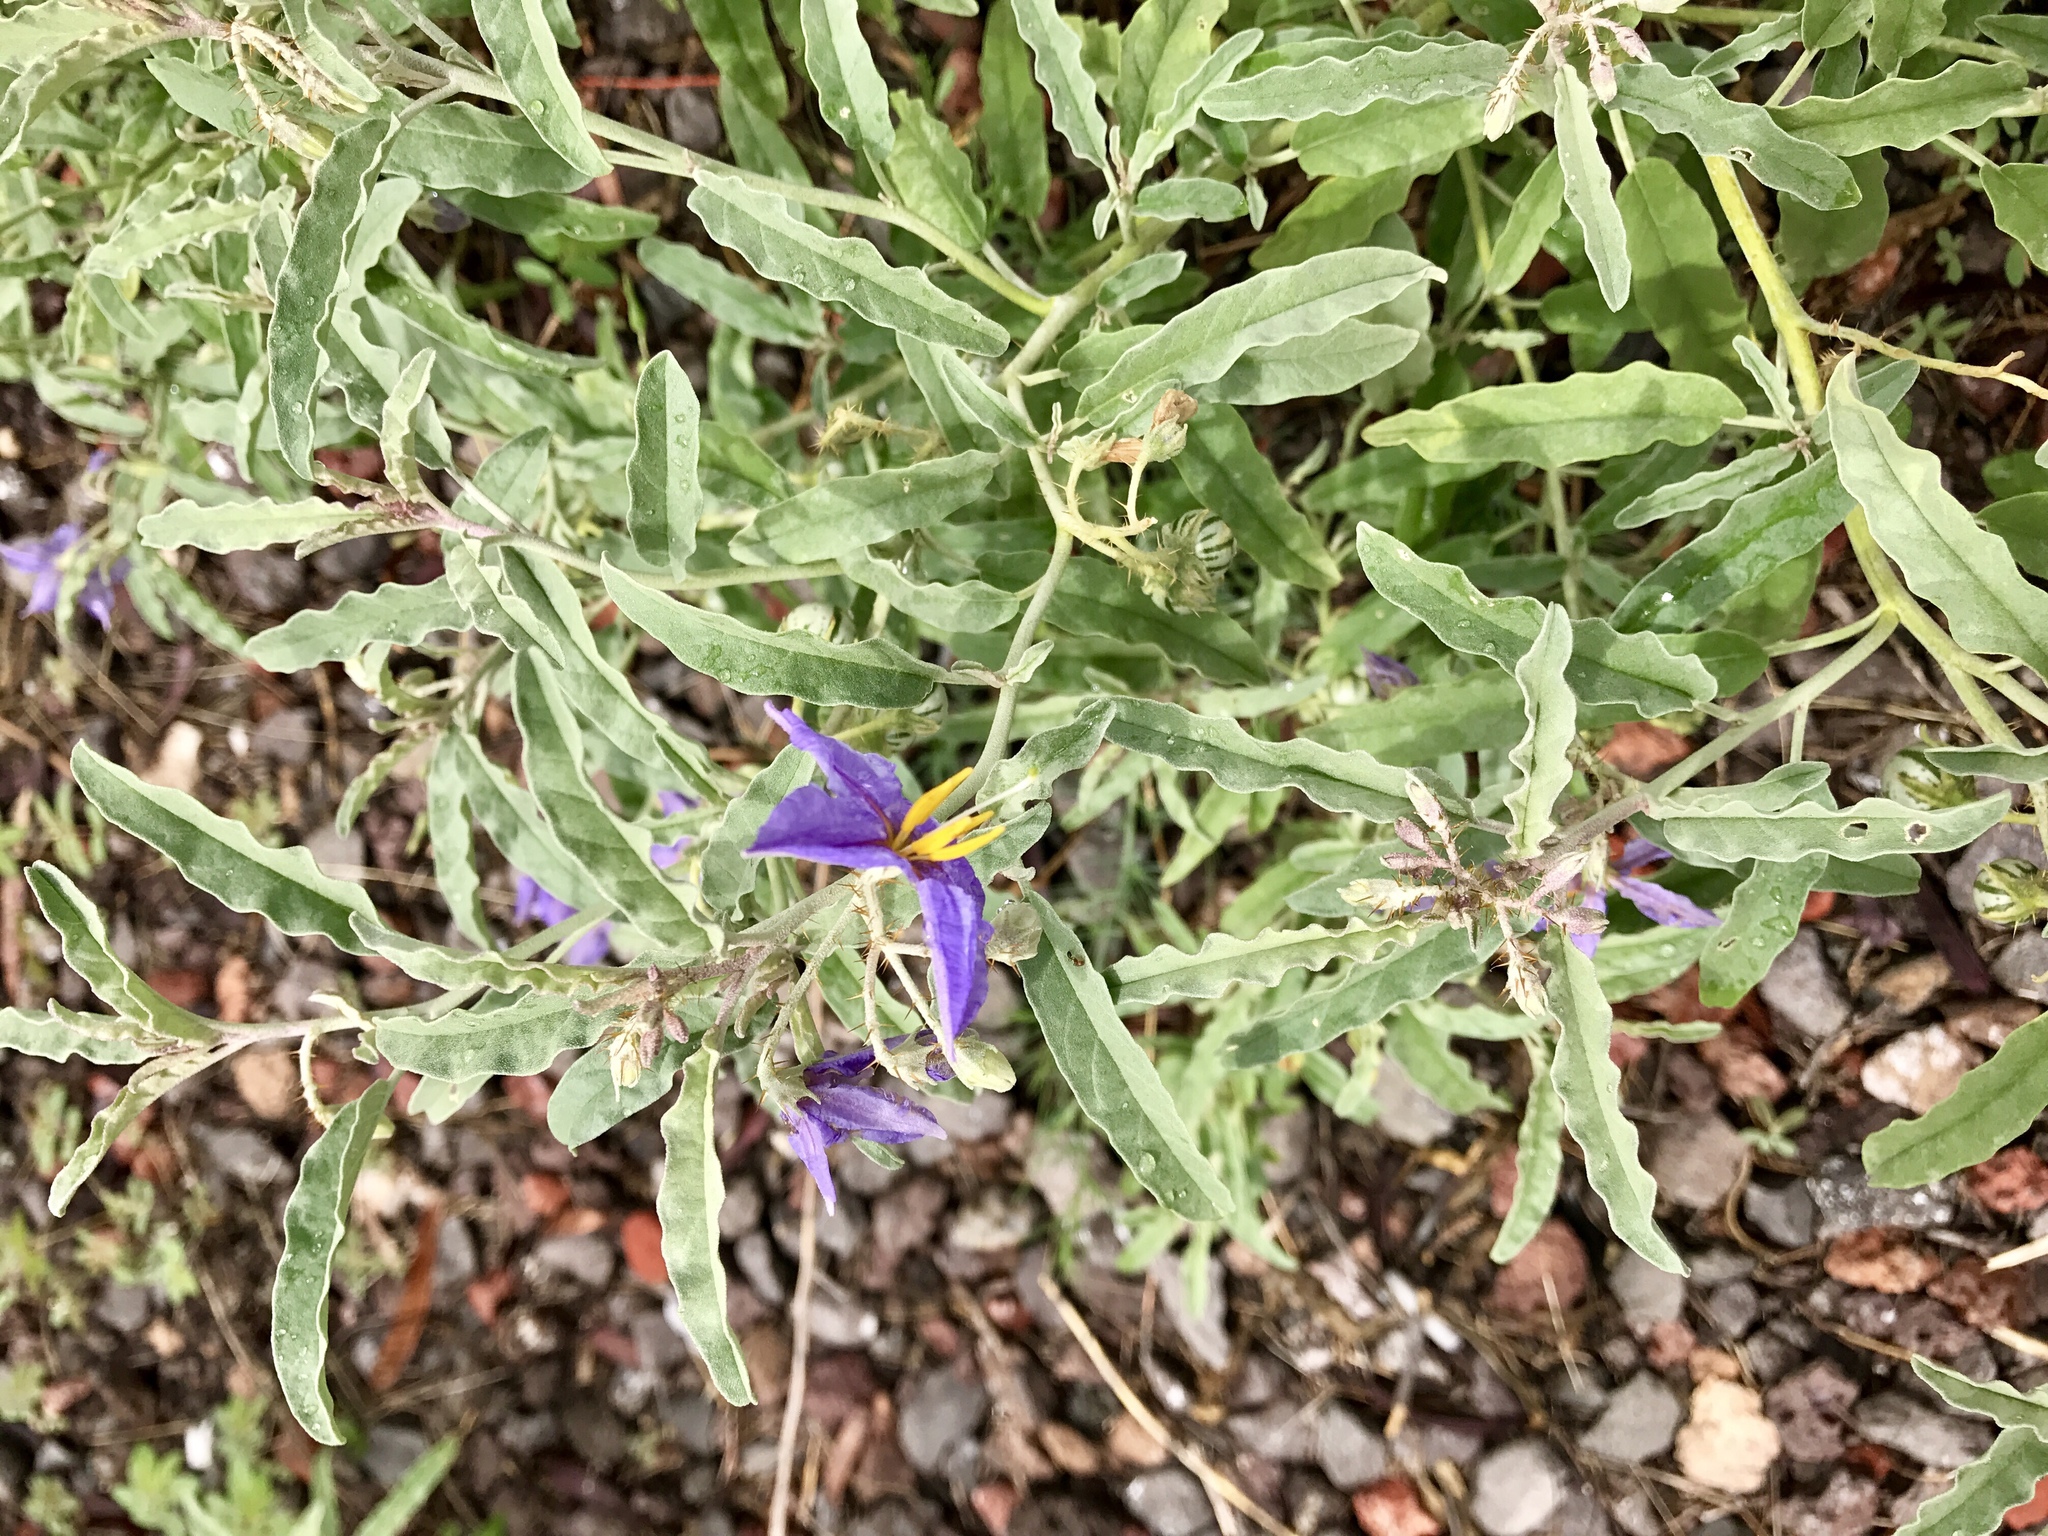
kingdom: Plantae
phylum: Tracheophyta
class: Magnoliopsida
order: Solanales
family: Solanaceae
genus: Solanum
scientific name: Solanum elaeagnifolium
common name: Silverleaf nightshade
